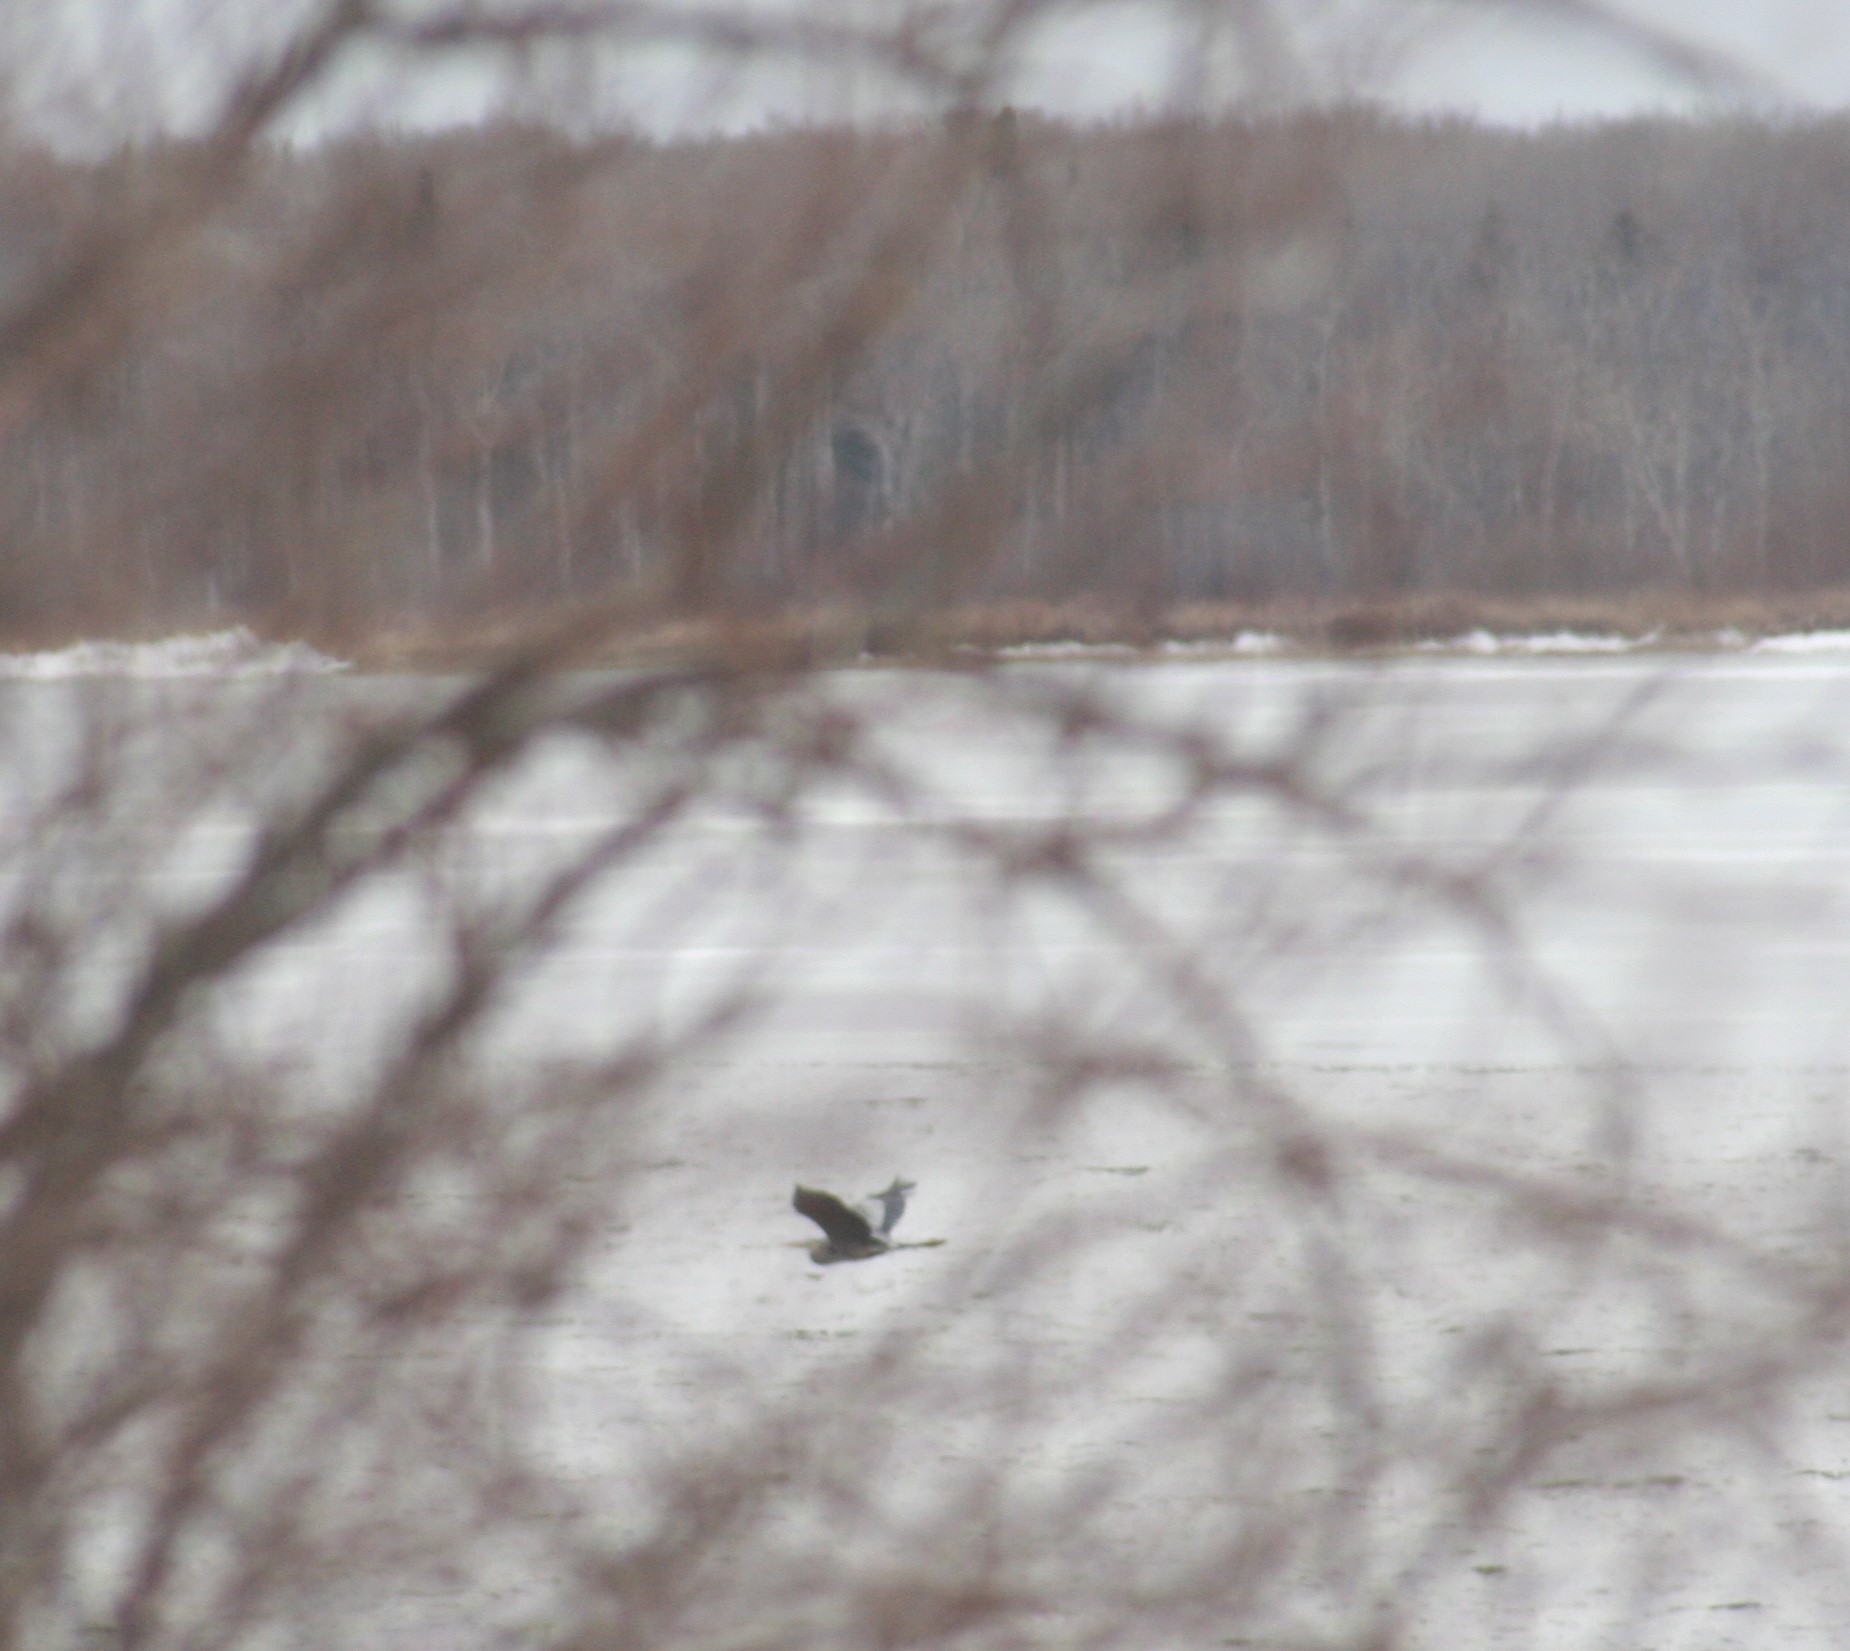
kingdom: Animalia
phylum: Chordata
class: Aves
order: Pelecaniformes
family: Ardeidae
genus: Ardea
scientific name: Ardea herodias
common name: Great blue heron
